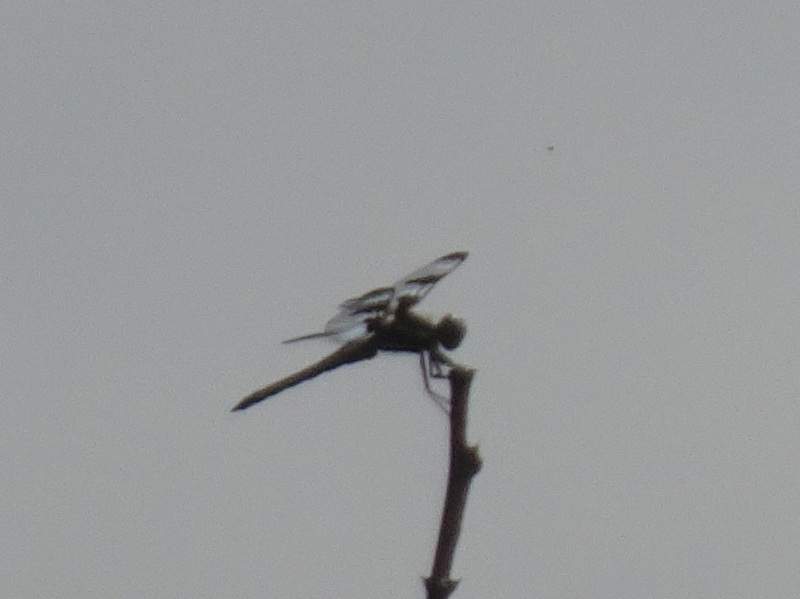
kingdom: Animalia
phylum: Arthropoda
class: Insecta
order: Odonata
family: Libellulidae
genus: Libellula
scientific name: Libellula pulchella
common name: Twelve-spotted skimmer
